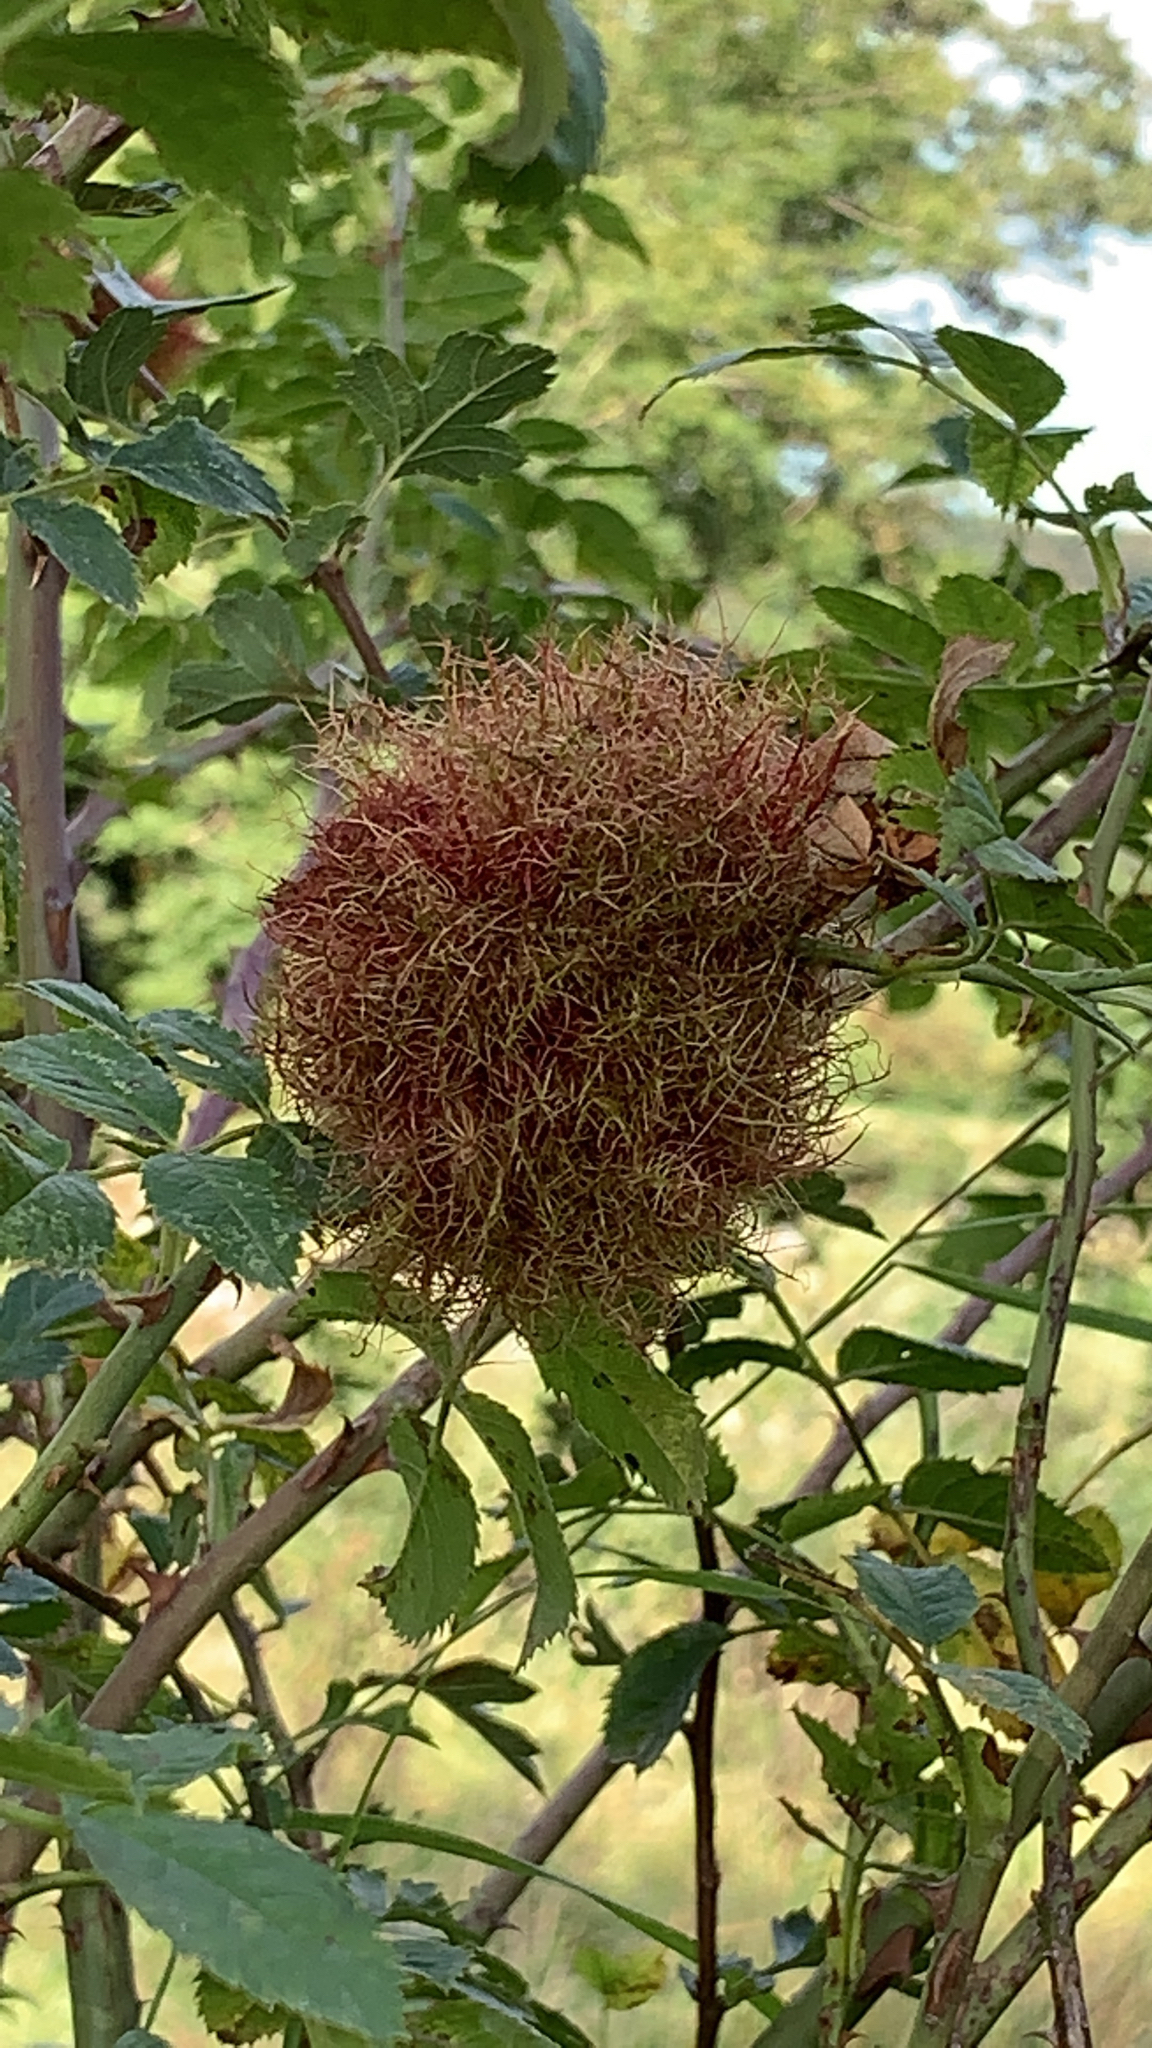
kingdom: Animalia
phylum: Arthropoda
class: Insecta
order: Hymenoptera
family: Cynipidae
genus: Diplolepis
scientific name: Diplolepis rosae
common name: Bedeguar gall
